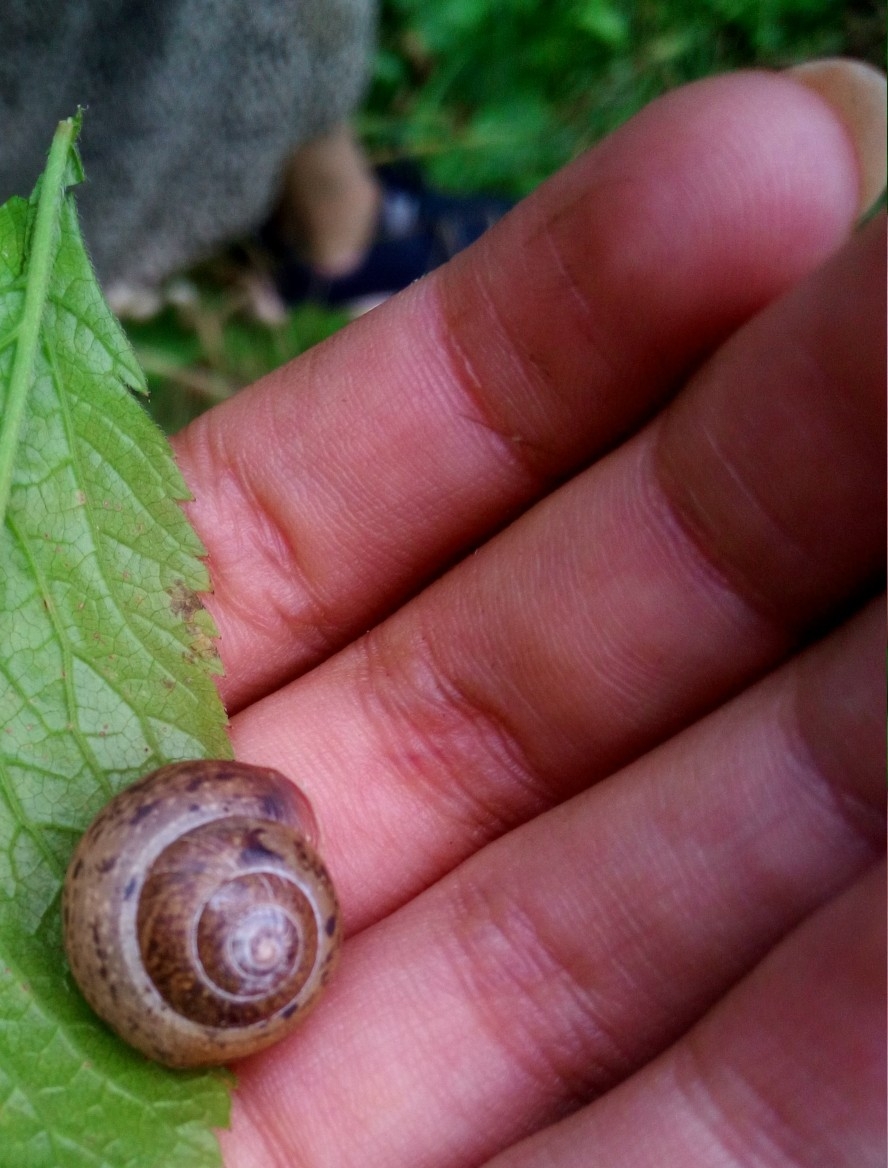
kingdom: Animalia
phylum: Mollusca
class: Gastropoda
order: Stylommatophora
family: Camaenidae
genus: Fruticicola
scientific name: Fruticicola fruticum
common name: Bush snail
